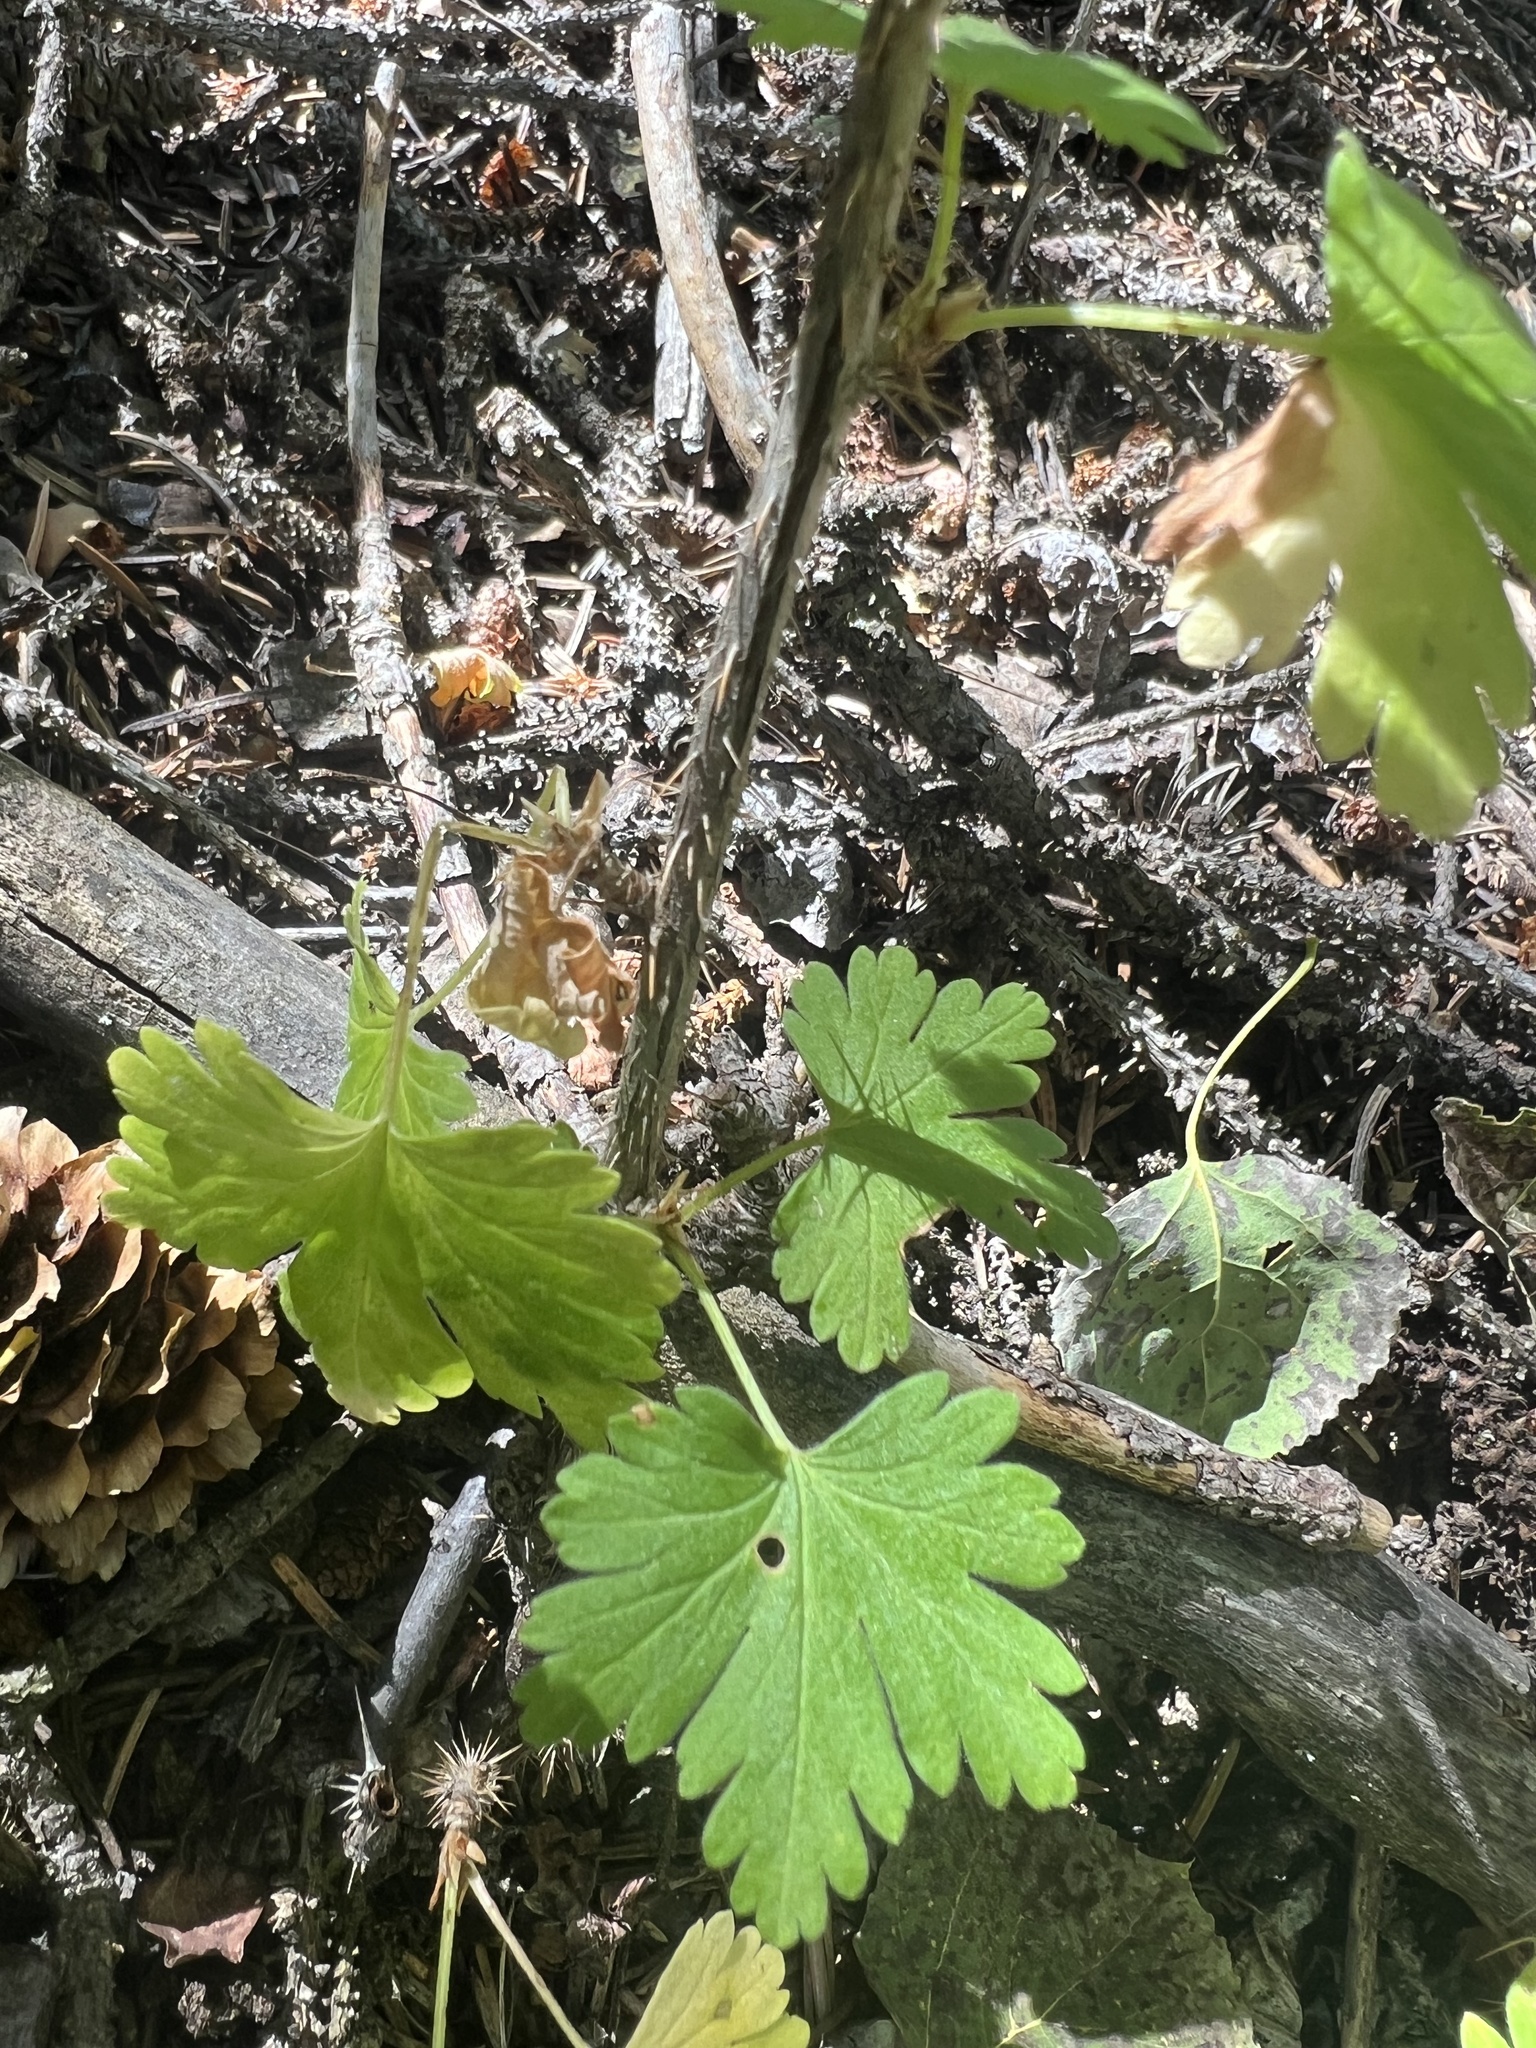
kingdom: Plantae
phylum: Tracheophyta
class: Magnoliopsida
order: Saxifragales
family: Grossulariaceae
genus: Ribes
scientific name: Ribes inerme
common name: White-stem gooseberry
